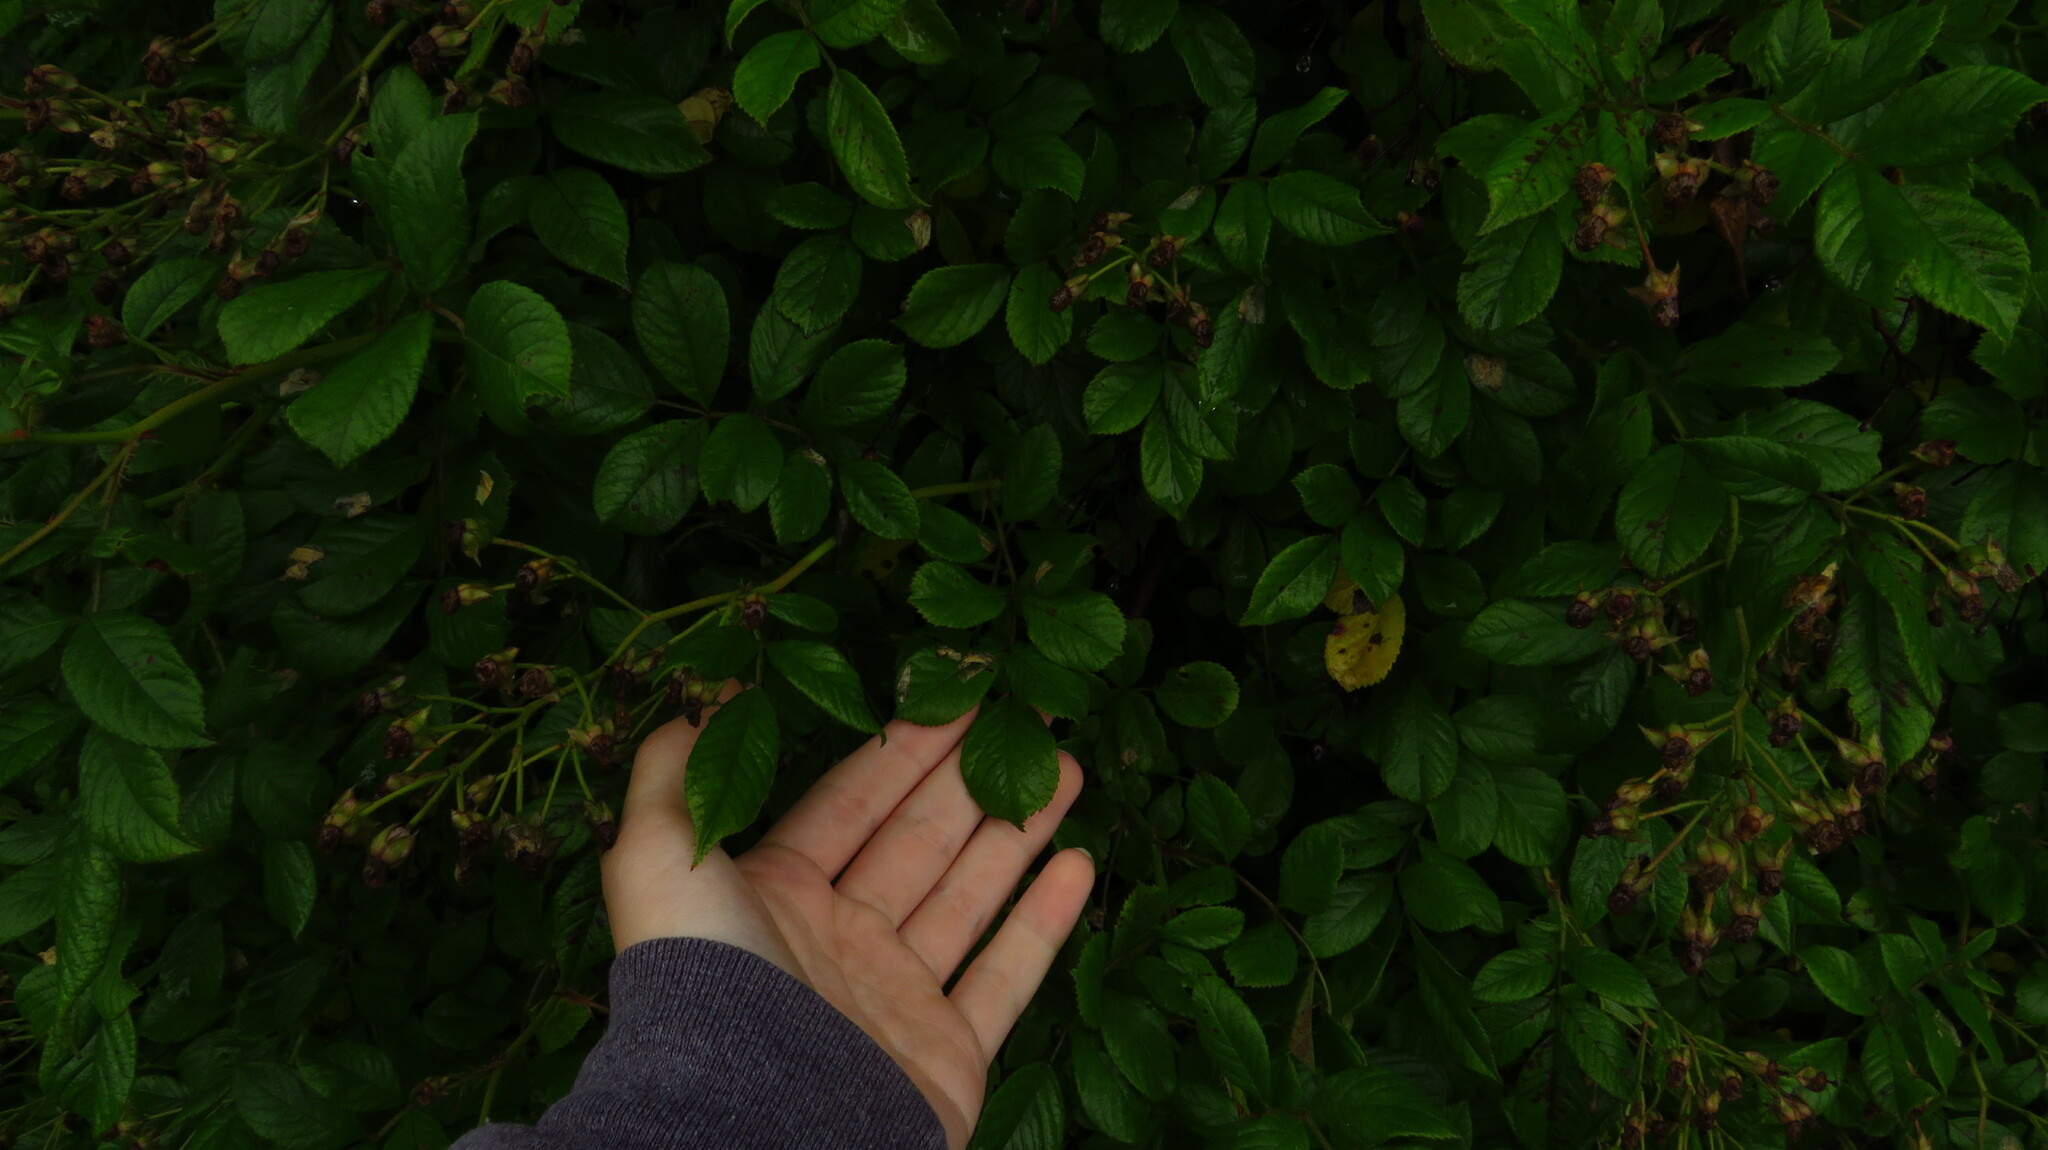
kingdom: Plantae
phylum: Tracheophyta
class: Magnoliopsida
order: Rosales
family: Rosaceae
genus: Rosa
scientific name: Rosa multiflora
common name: Multiflora rose
